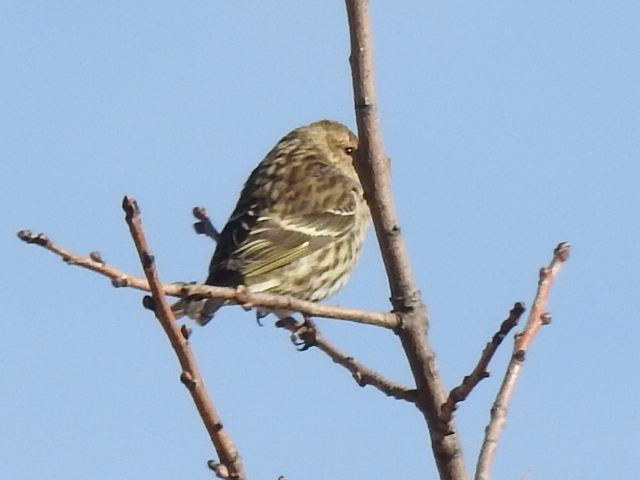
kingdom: Animalia
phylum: Chordata
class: Aves
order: Passeriformes
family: Fringillidae
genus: Spinus
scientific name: Spinus pinus
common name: Pine siskin
